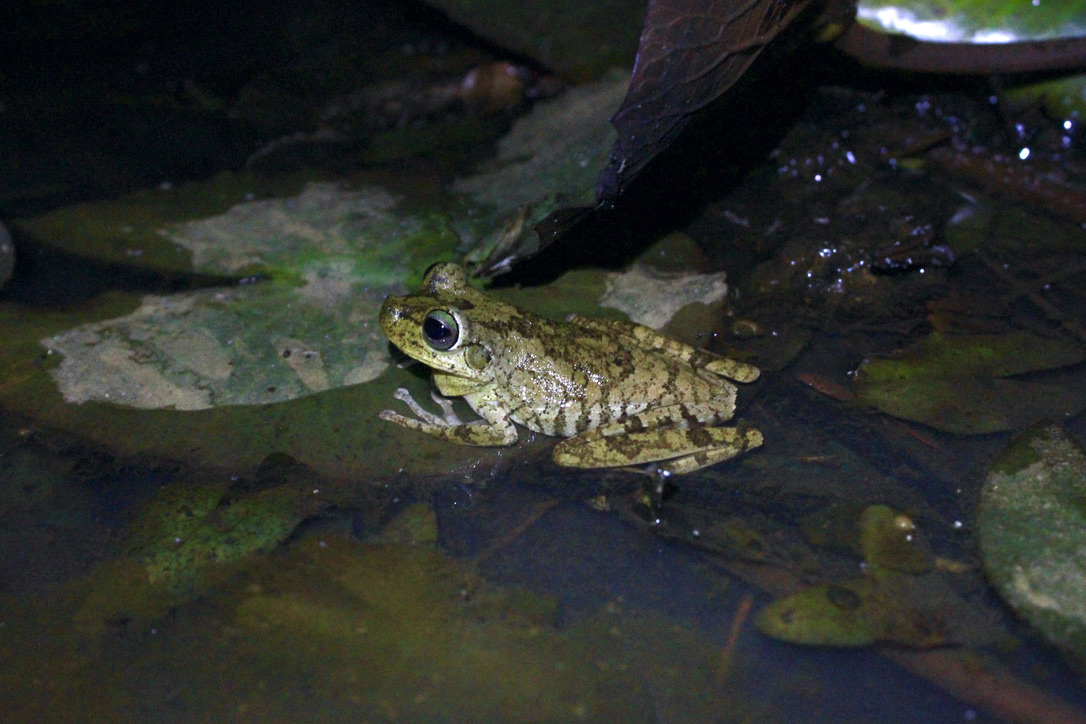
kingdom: Animalia
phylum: Chordata
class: Amphibia
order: Anura
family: Hylidae
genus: Boana
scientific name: Boana platanera
